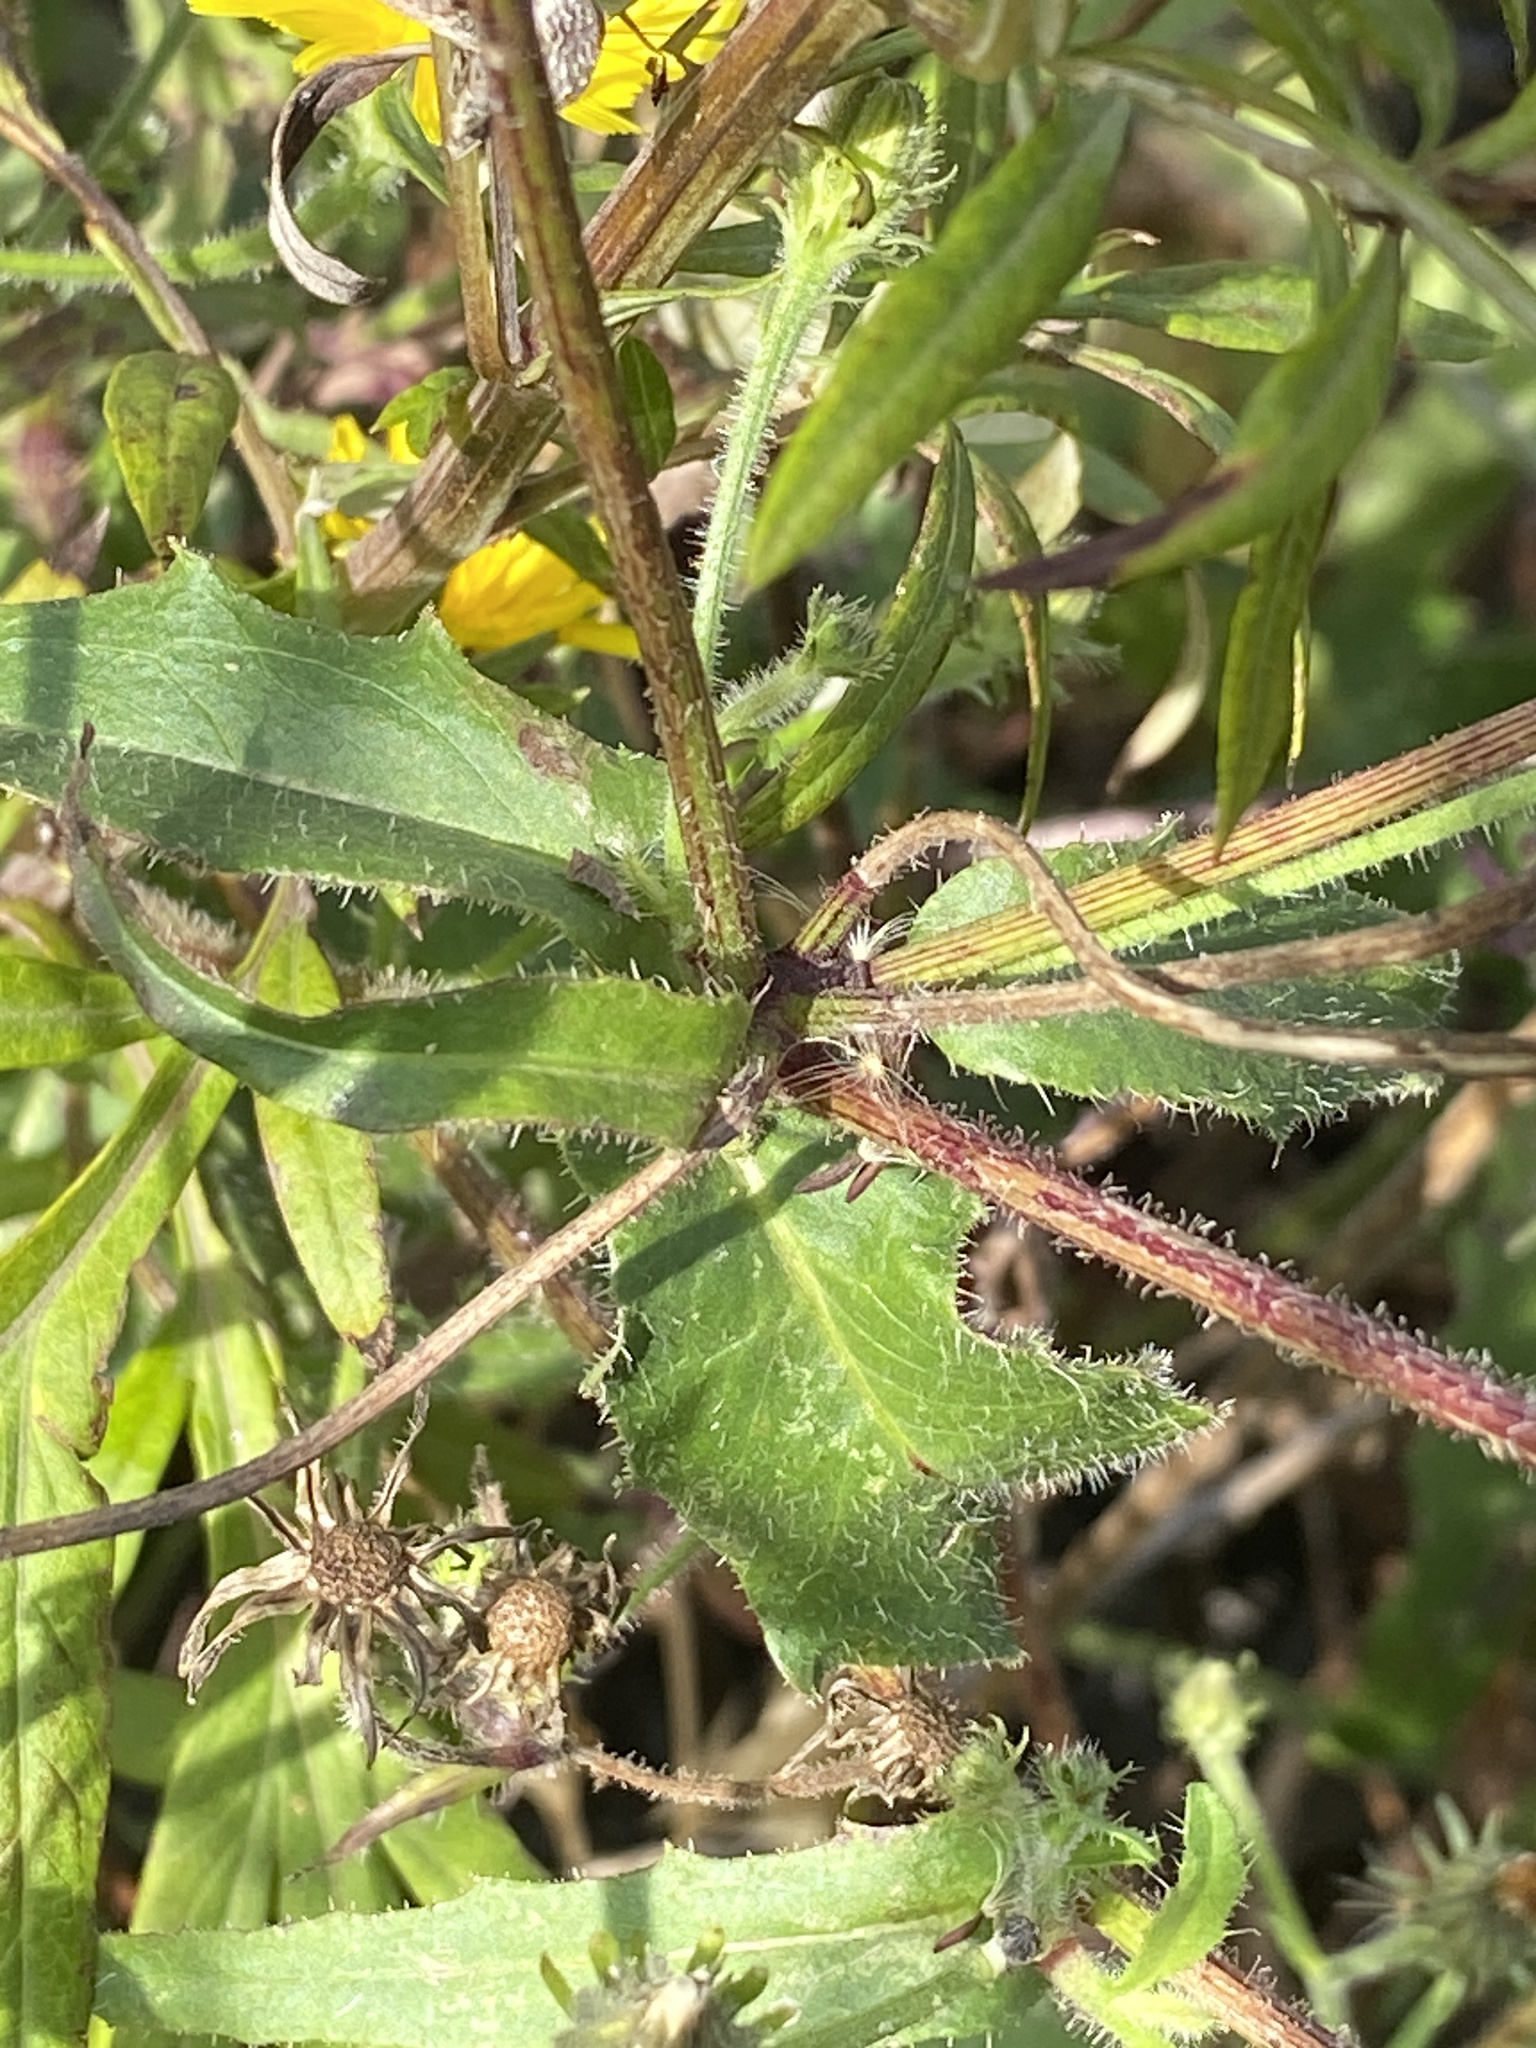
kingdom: Plantae
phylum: Tracheophyta
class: Magnoliopsida
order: Asterales
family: Asteraceae
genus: Picris
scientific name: Picris hieracioides
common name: Hawkweed oxtongue
